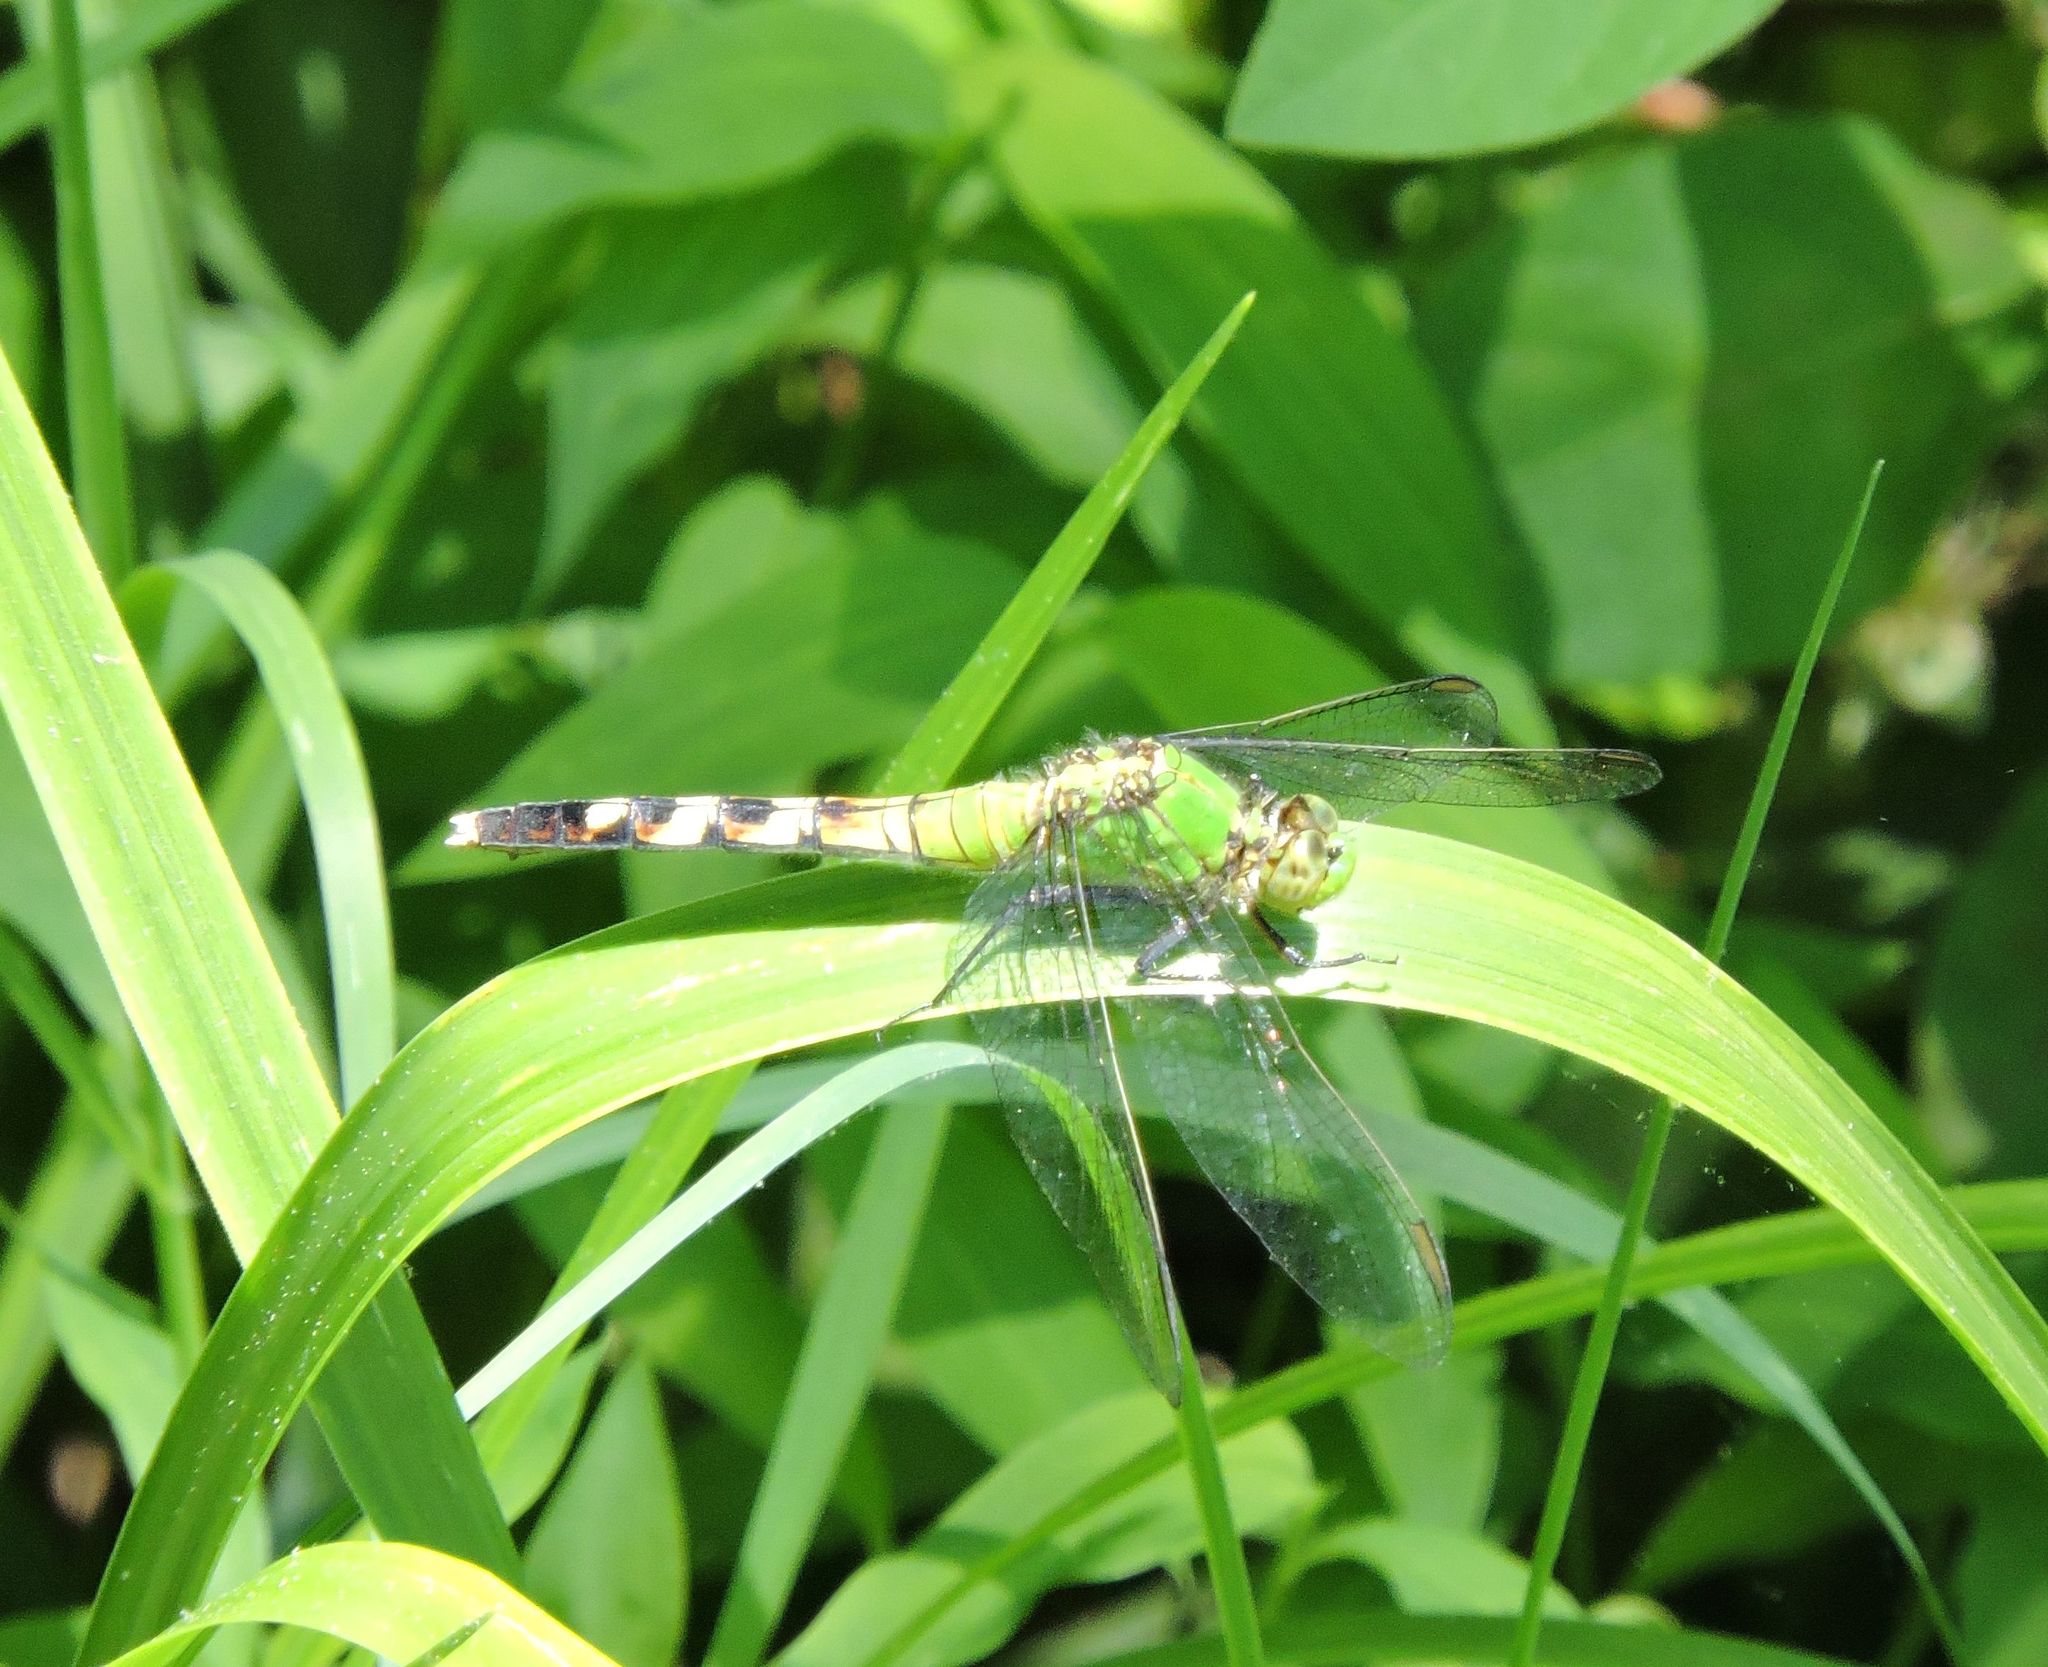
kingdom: Animalia
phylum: Arthropoda
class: Insecta
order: Odonata
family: Libellulidae
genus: Erythemis
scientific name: Erythemis simplicicollis
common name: Eastern pondhawk
